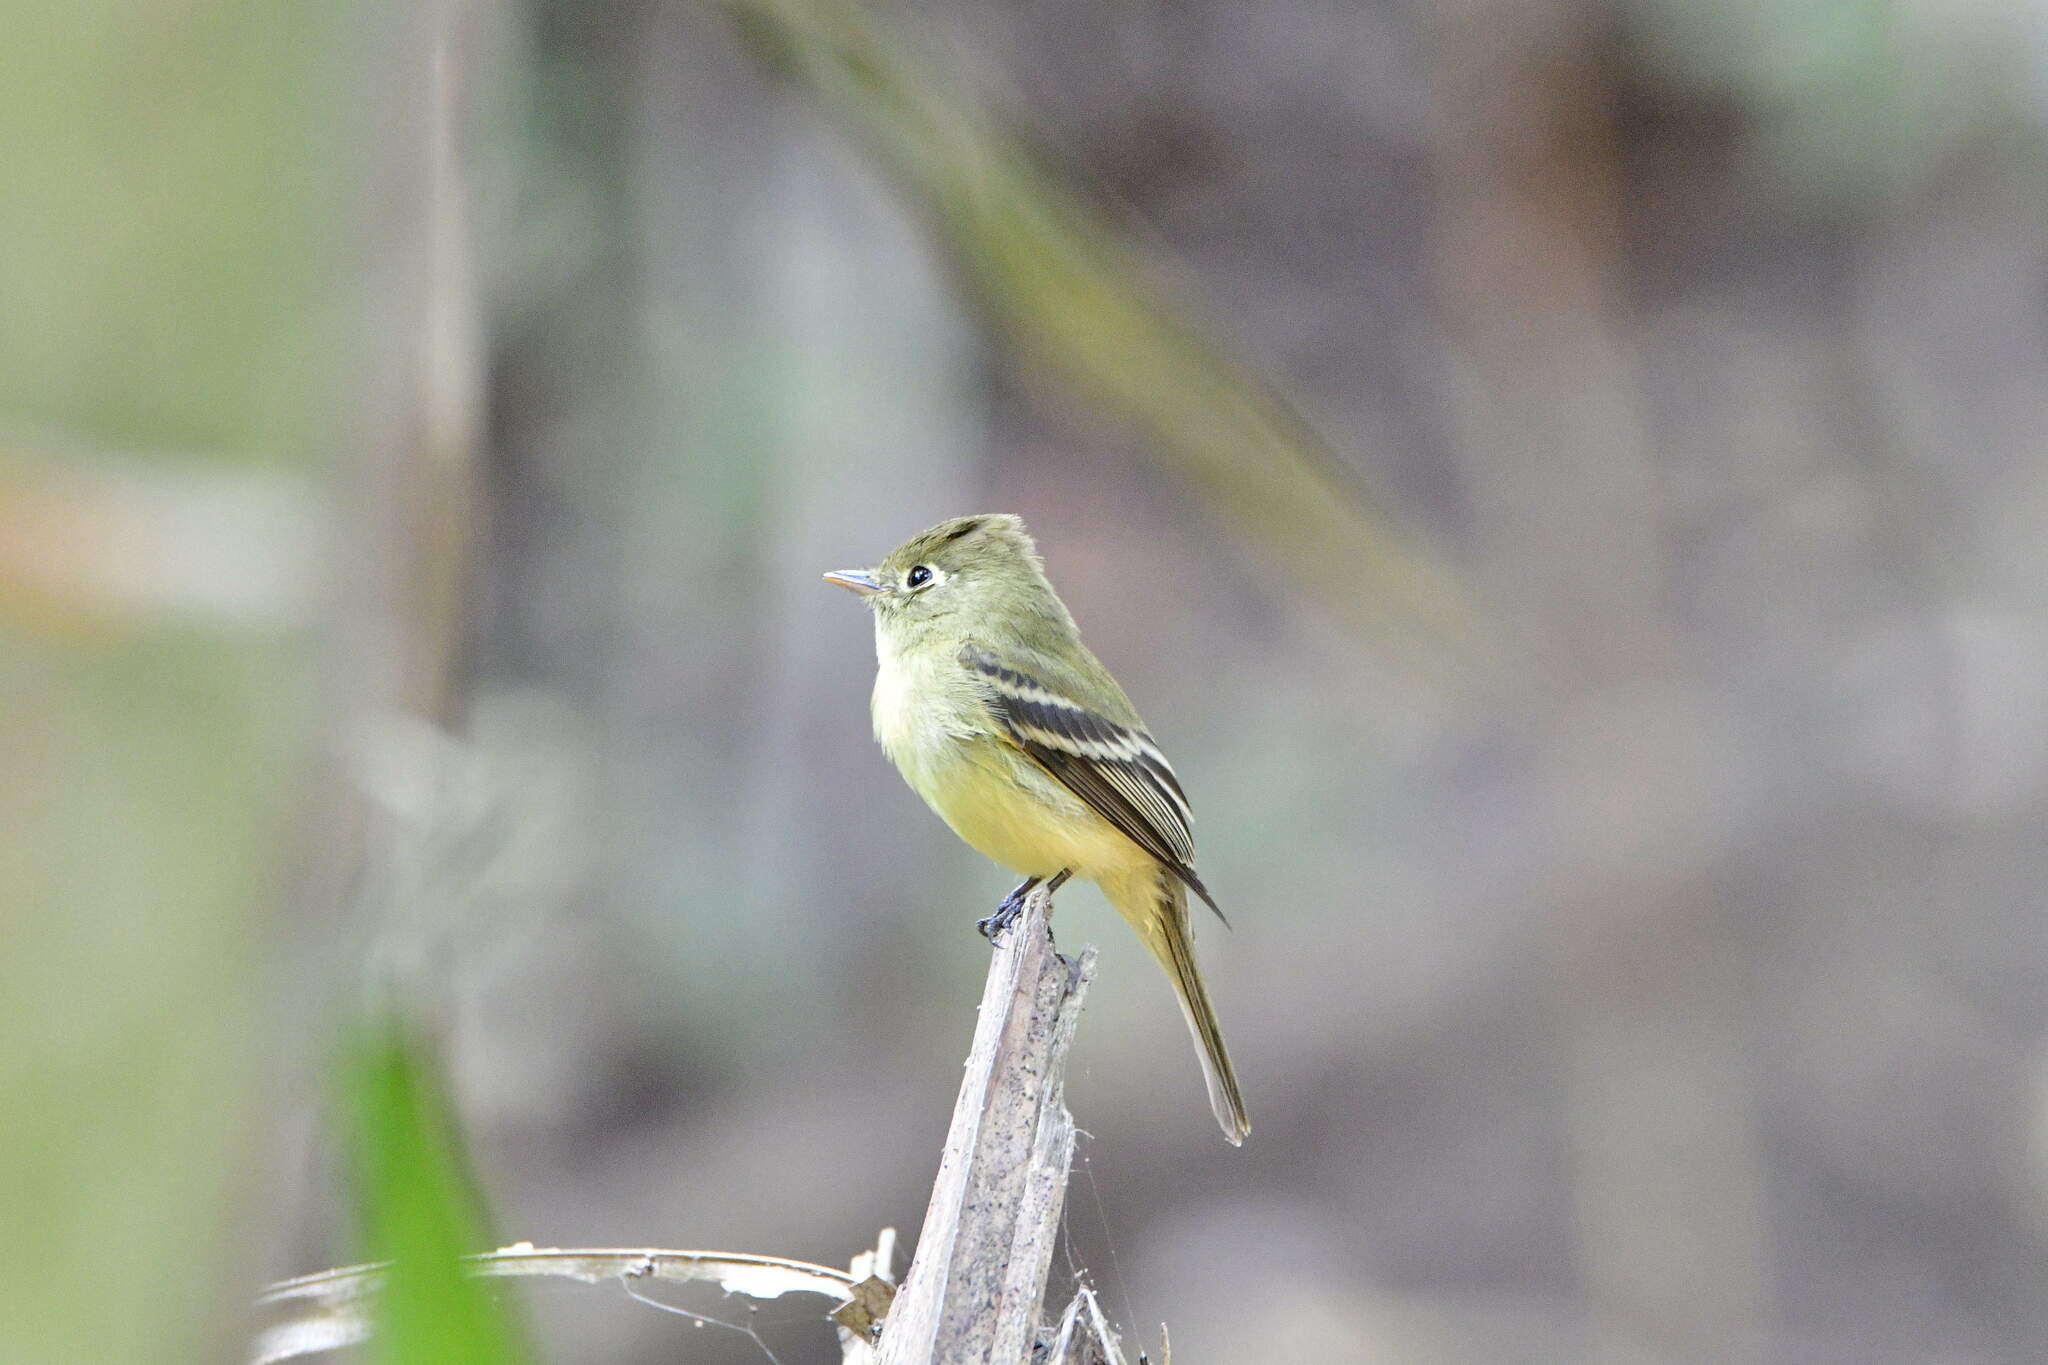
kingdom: Animalia
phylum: Chordata
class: Aves
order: Passeriformes
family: Tyrannidae
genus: Empidonax
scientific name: Empidonax difficilis
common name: Pacific-slope flycatcher
